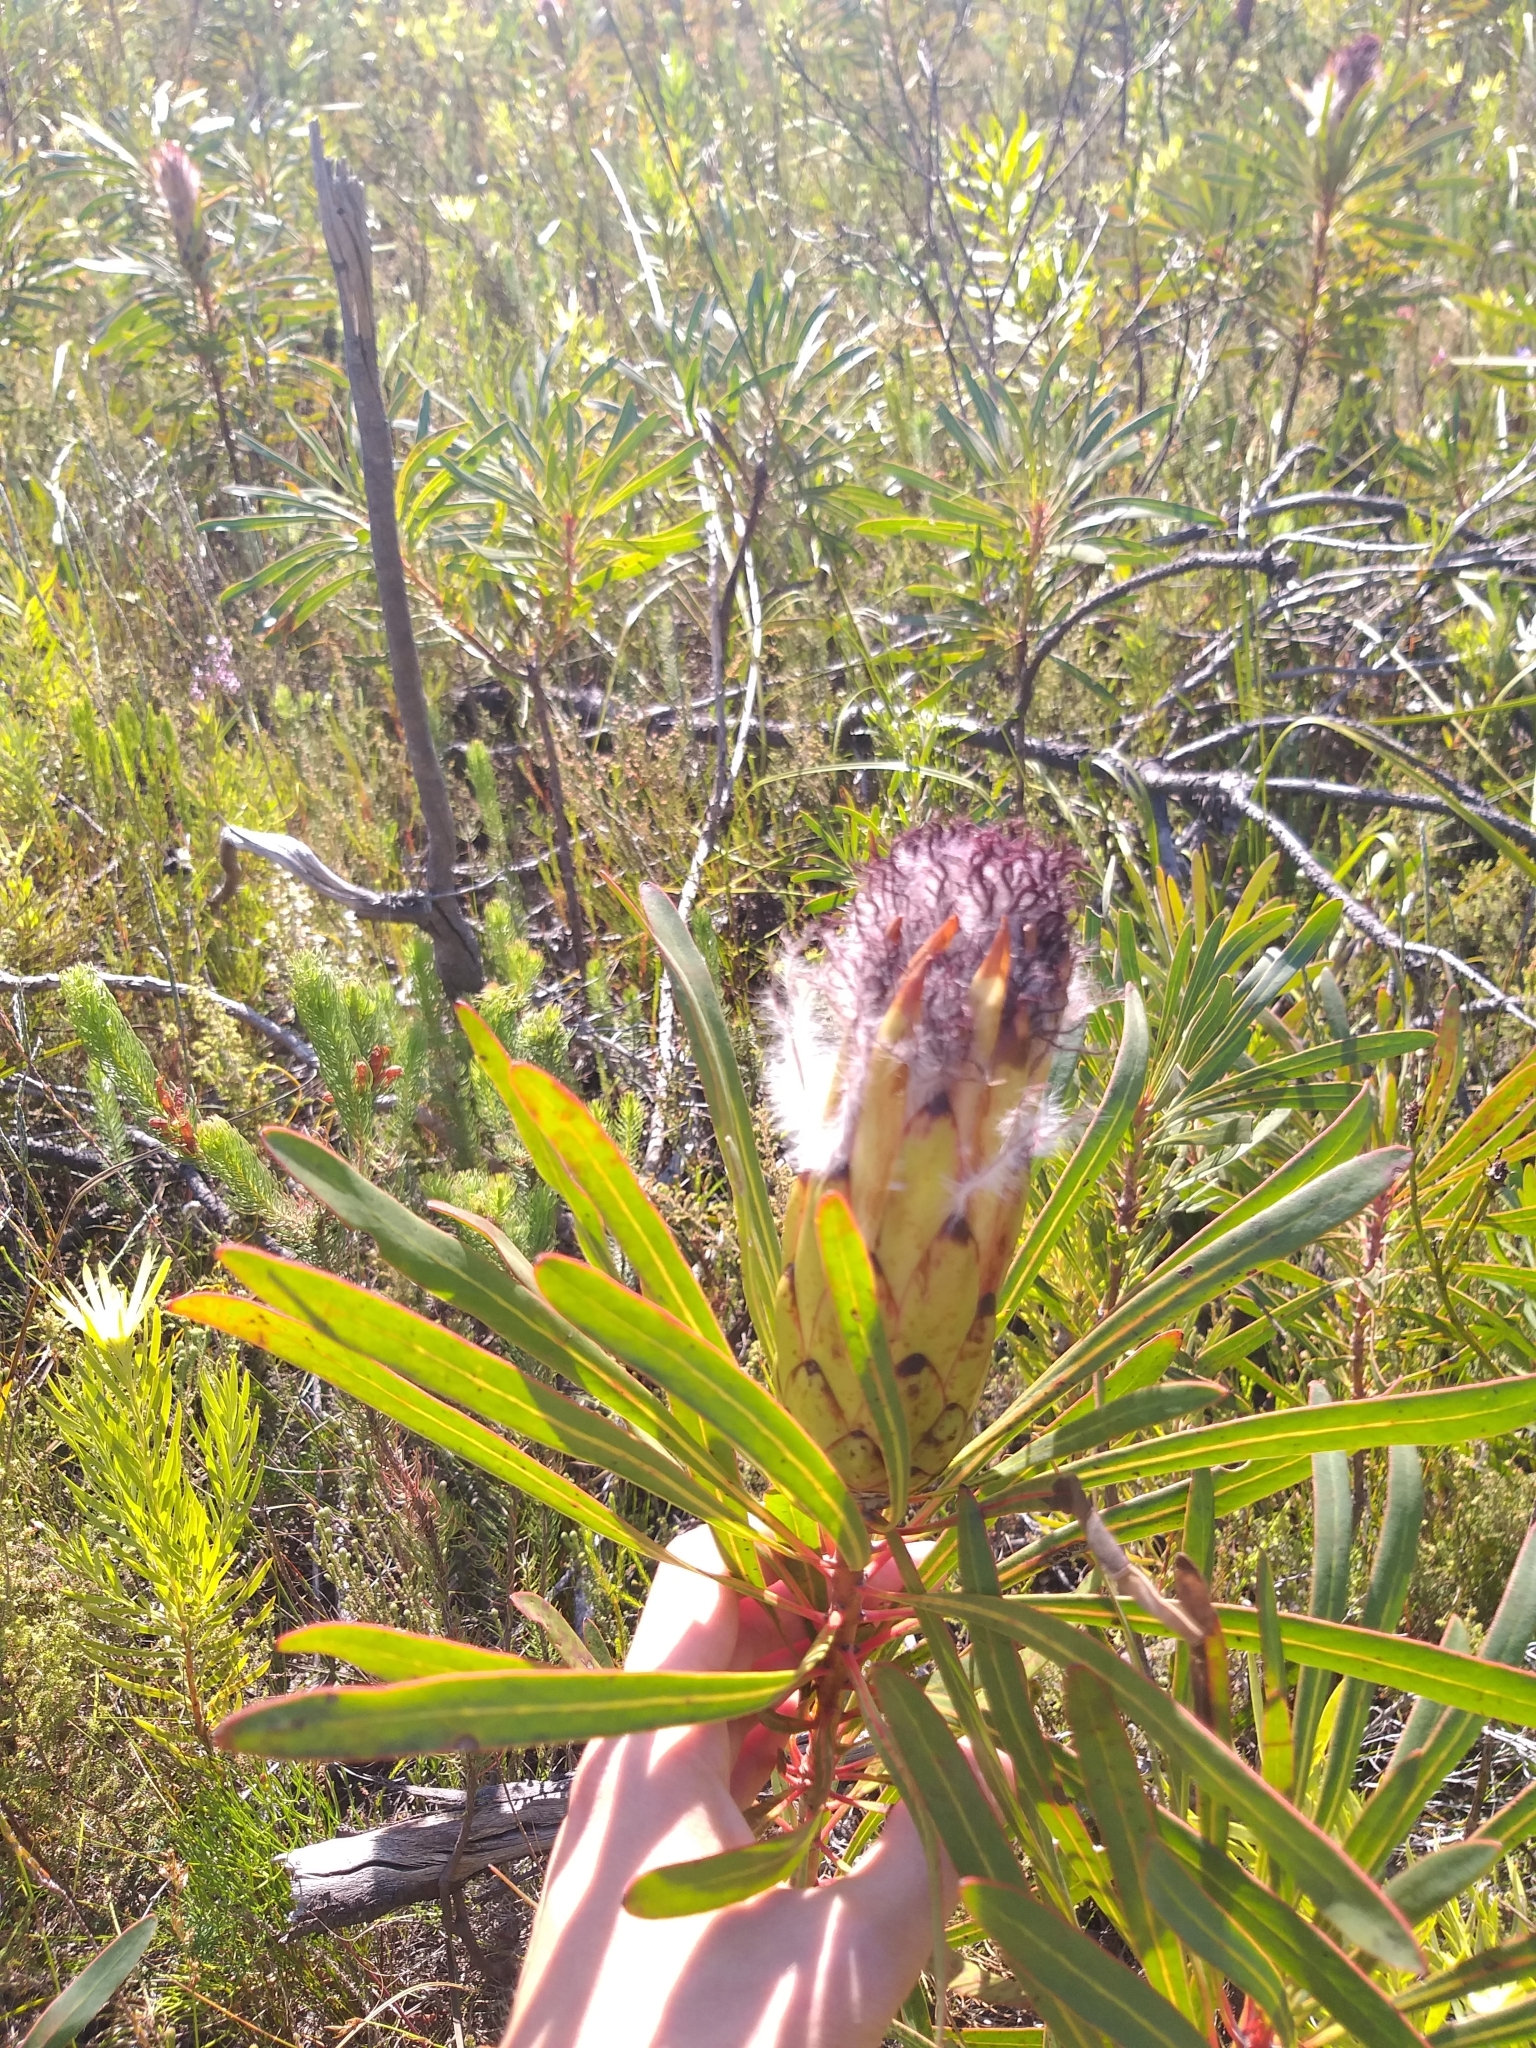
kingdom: Plantae
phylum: Tracheophyta
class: Magnoliopsida
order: Proteales
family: Proteaceae
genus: Protea
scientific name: Protea longifolia
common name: Long-leaf sugarbush
